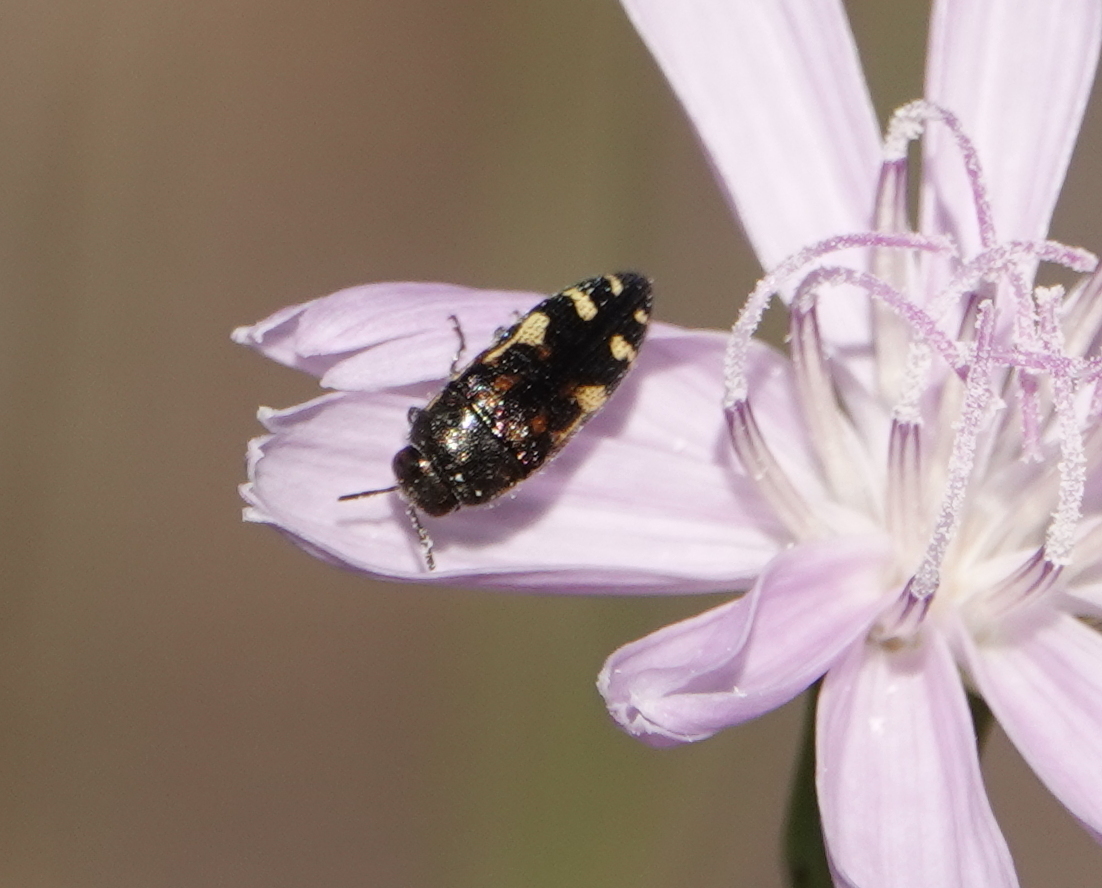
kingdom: Animalia
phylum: Arthropoda
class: Insecta
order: Coleoptera
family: Buprestidae
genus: Acmaeodera
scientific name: Acmaeodera pulchella
